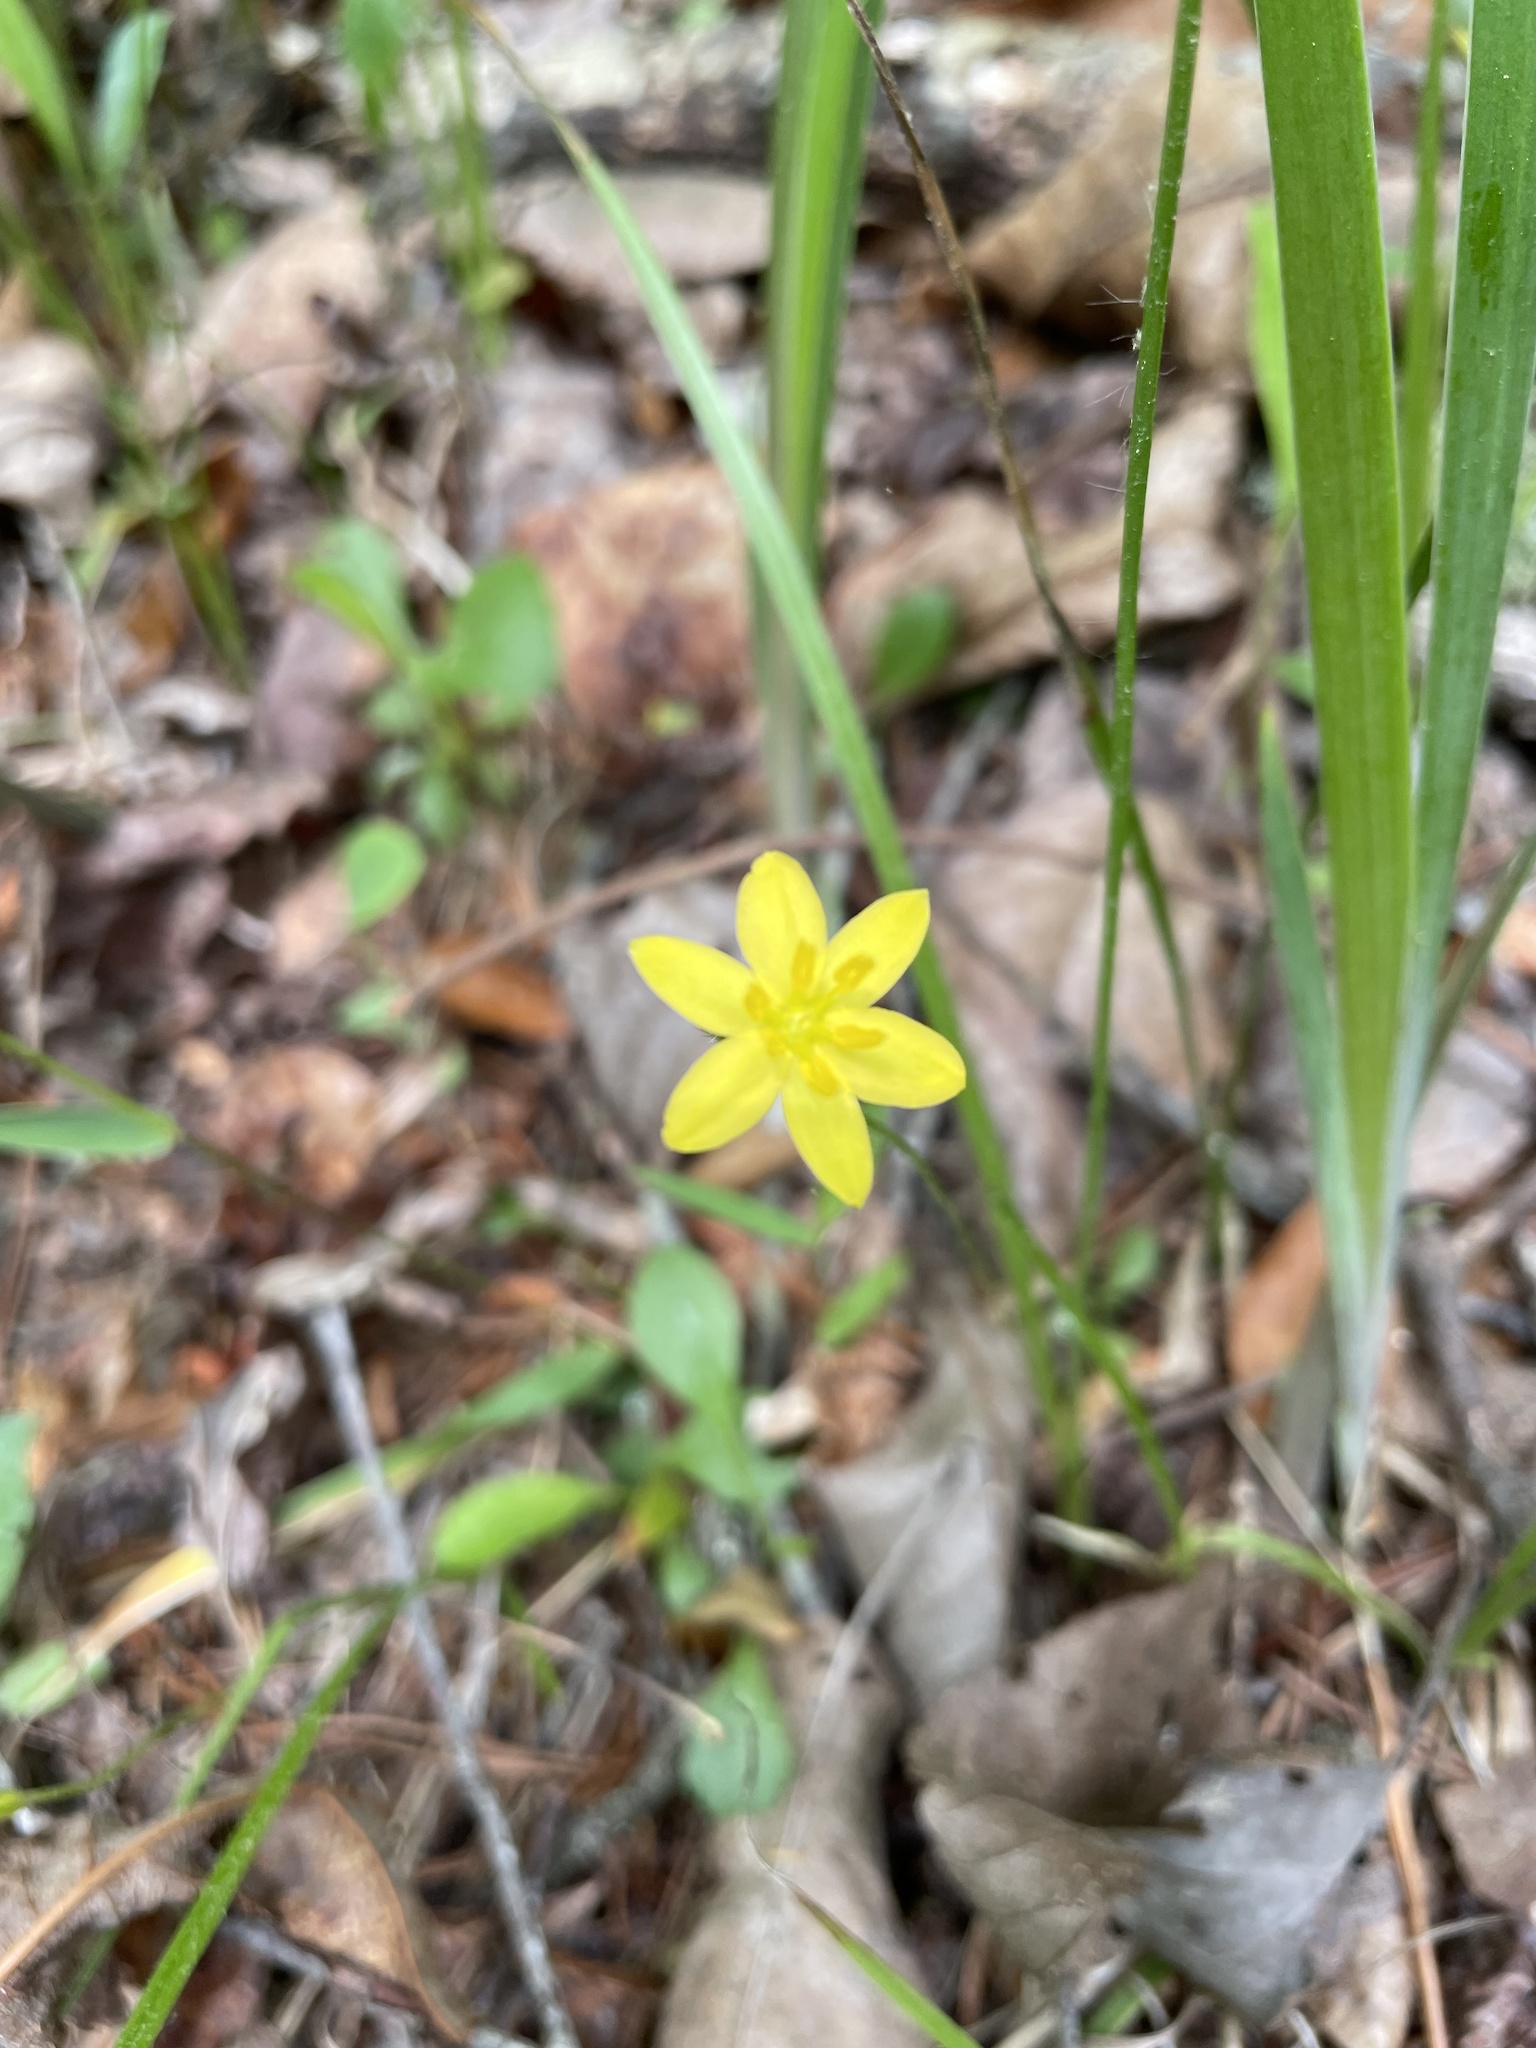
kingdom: Plantae
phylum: Tracheophyta
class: Liliopsida
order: Asparagales
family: Hypoxidaceae
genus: Hypoxis
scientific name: Hypoxis hirsuta
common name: Common goldstar
